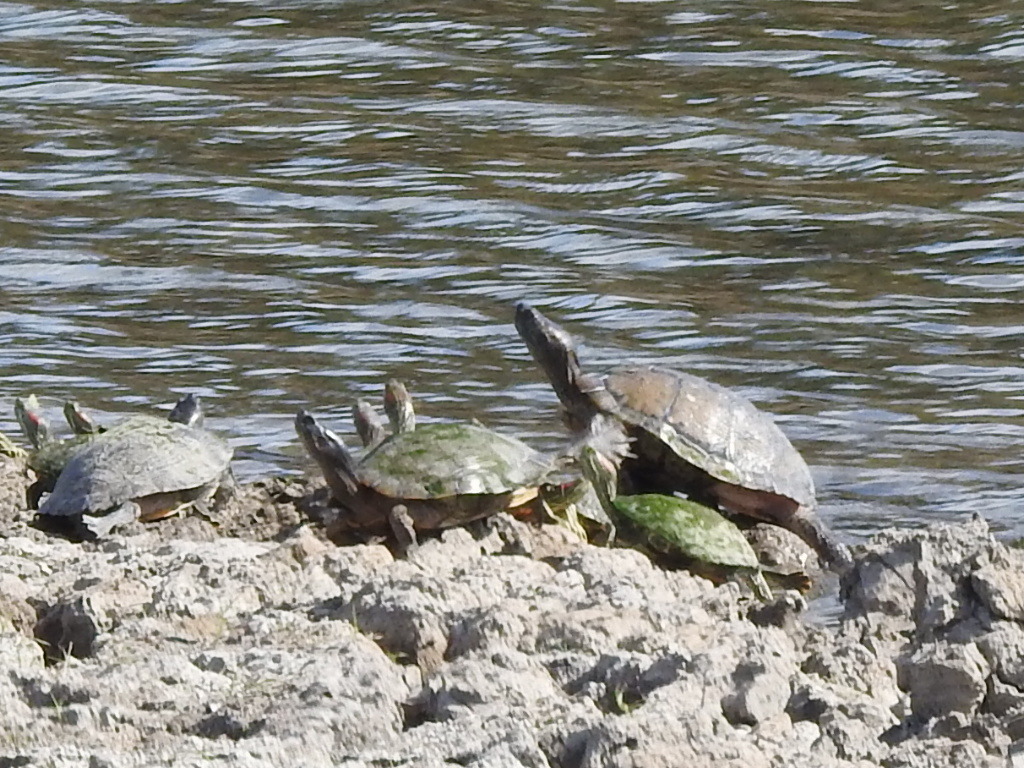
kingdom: Animalia
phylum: Chordata
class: Testudines
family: Emydidae
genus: Trachemys
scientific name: Trachemys scripta
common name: Slider
